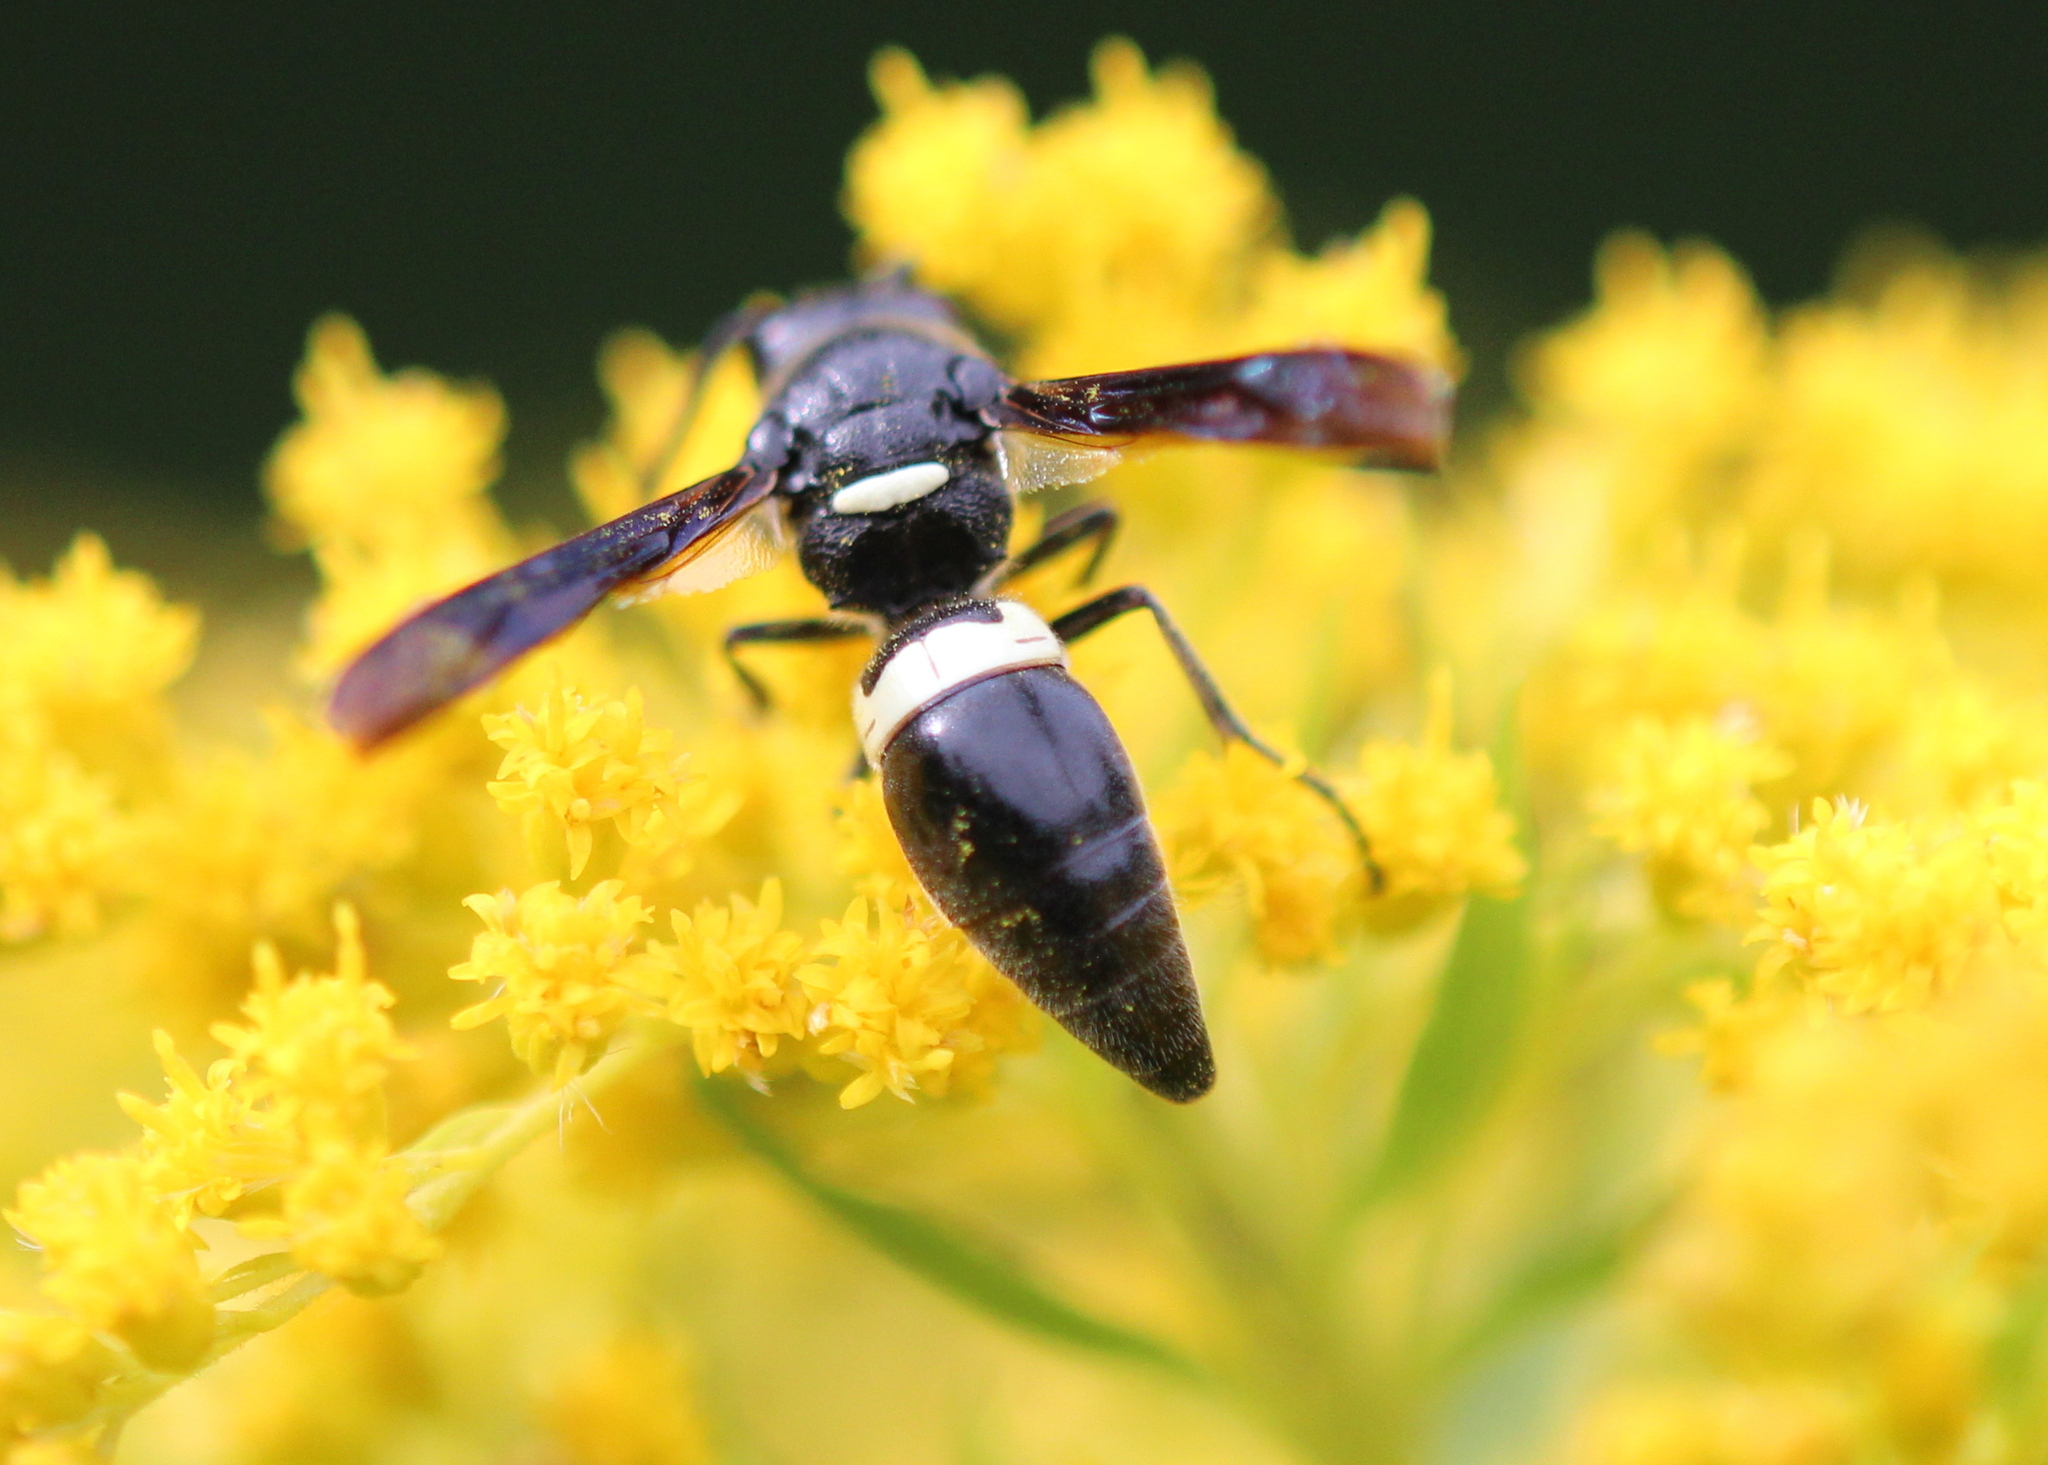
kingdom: Animalia
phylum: Arthropoda
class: Insecta
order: Hymenoptera
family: Eumenidae
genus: Monobia
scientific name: Monobia quadridens
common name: Four-toothed mason wasp
